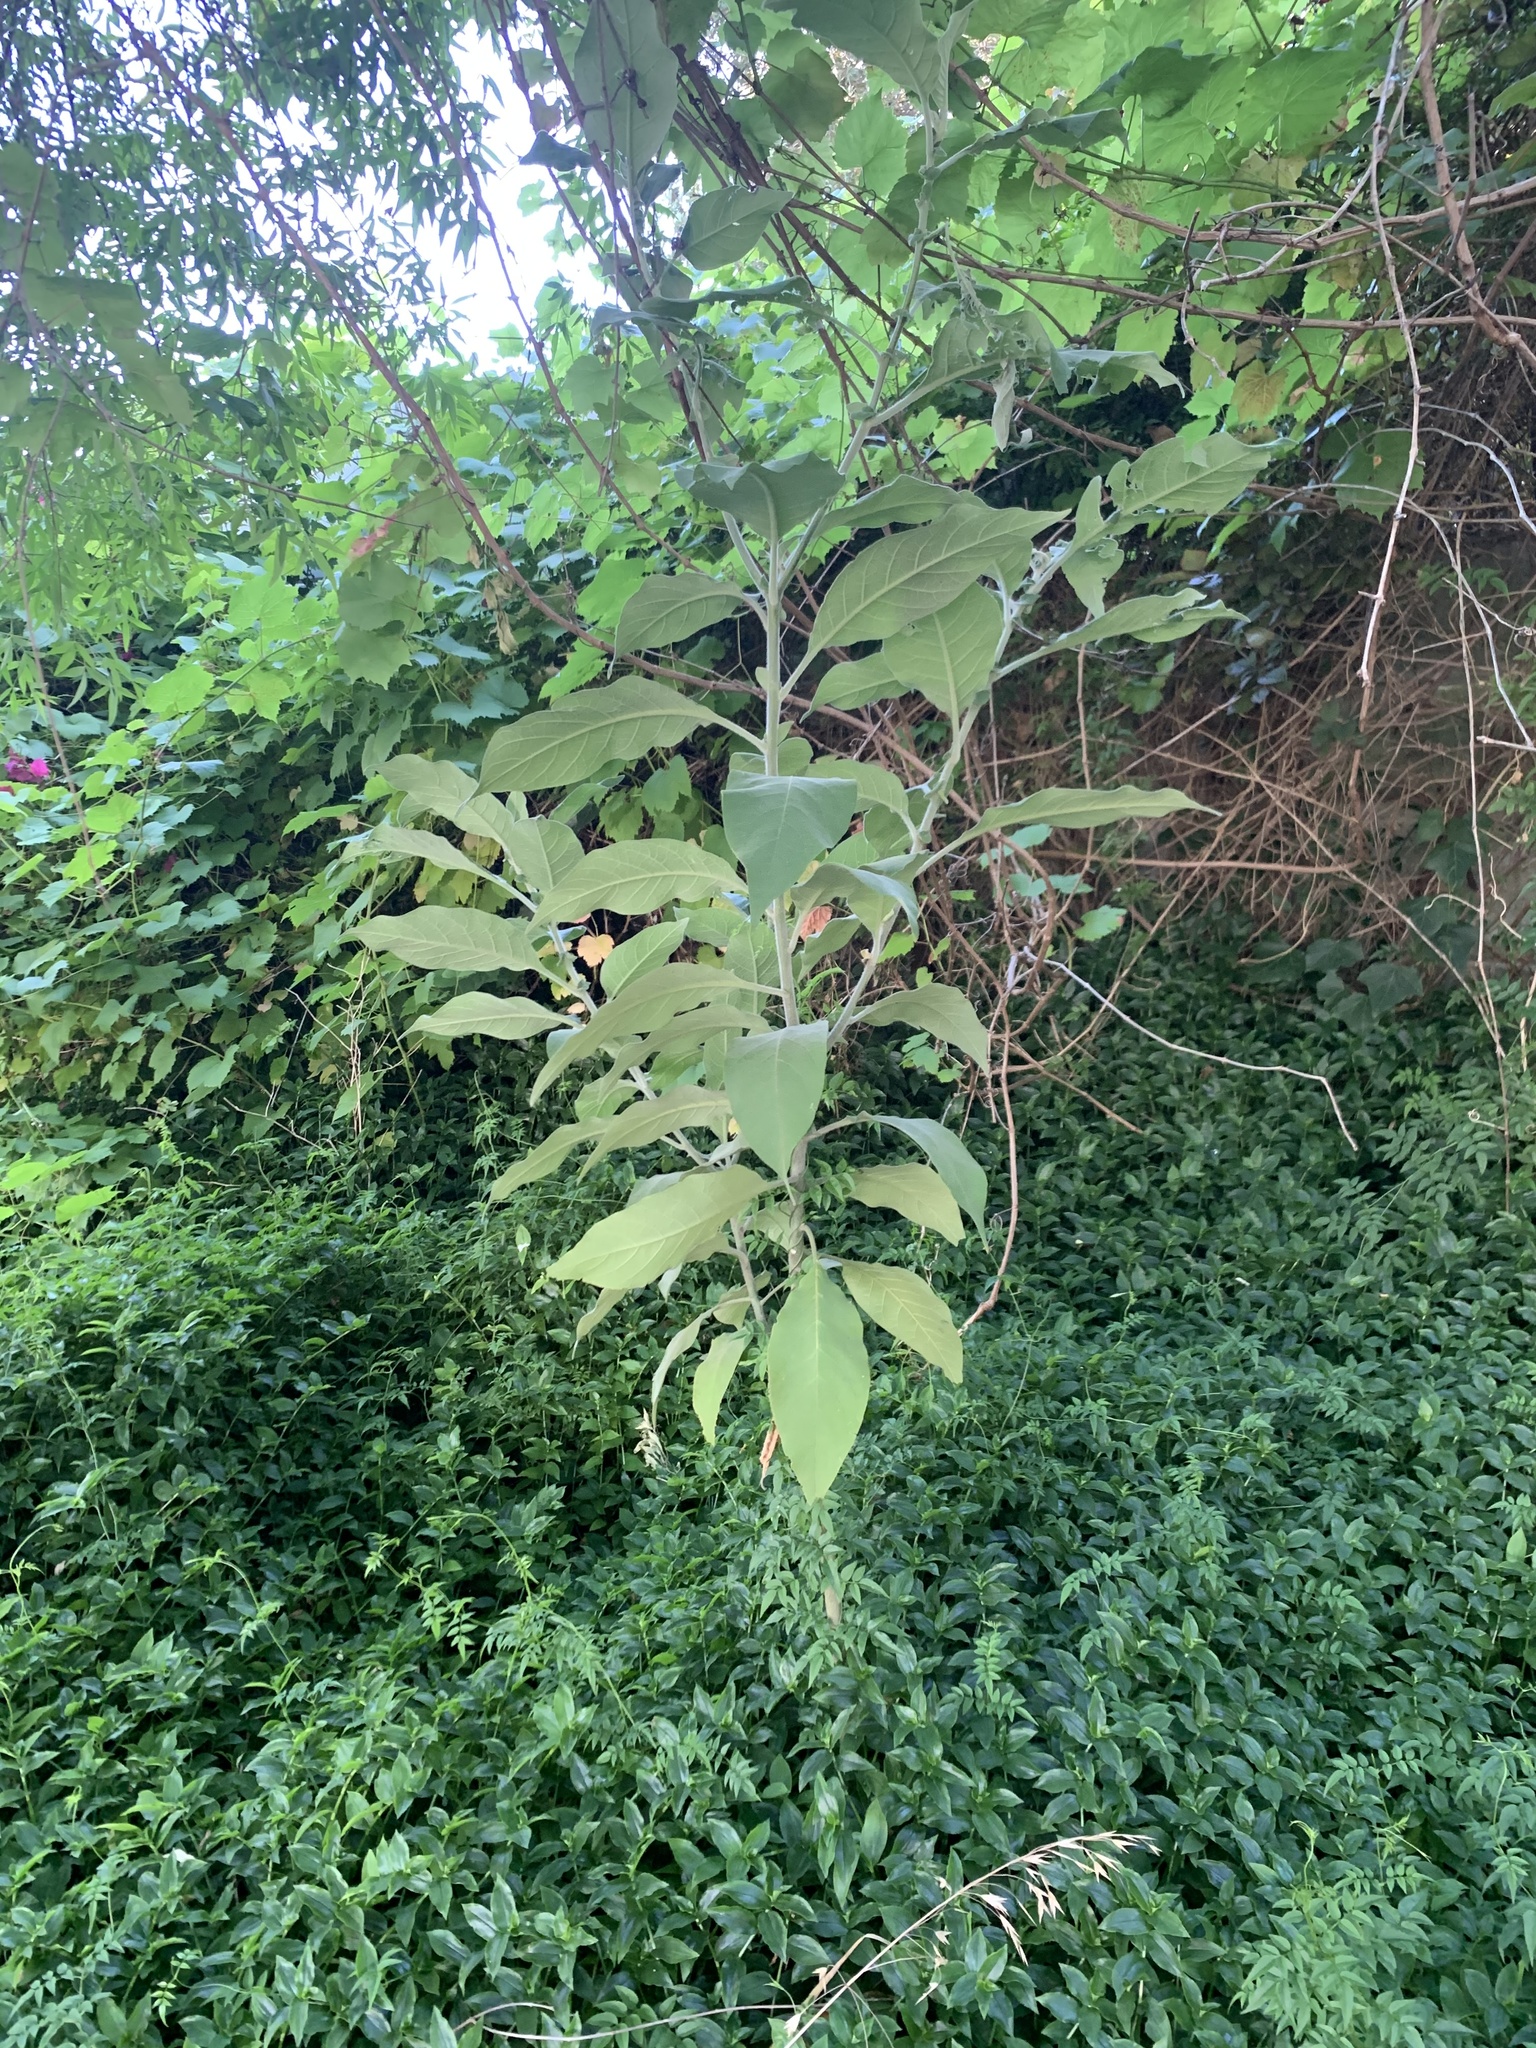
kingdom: Plantae
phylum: Tracheophyta
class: Magnoliopsida
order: Solanales
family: Solanaceae
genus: Solanum
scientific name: Solanum mauritianum
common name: Earleaf nightshade
